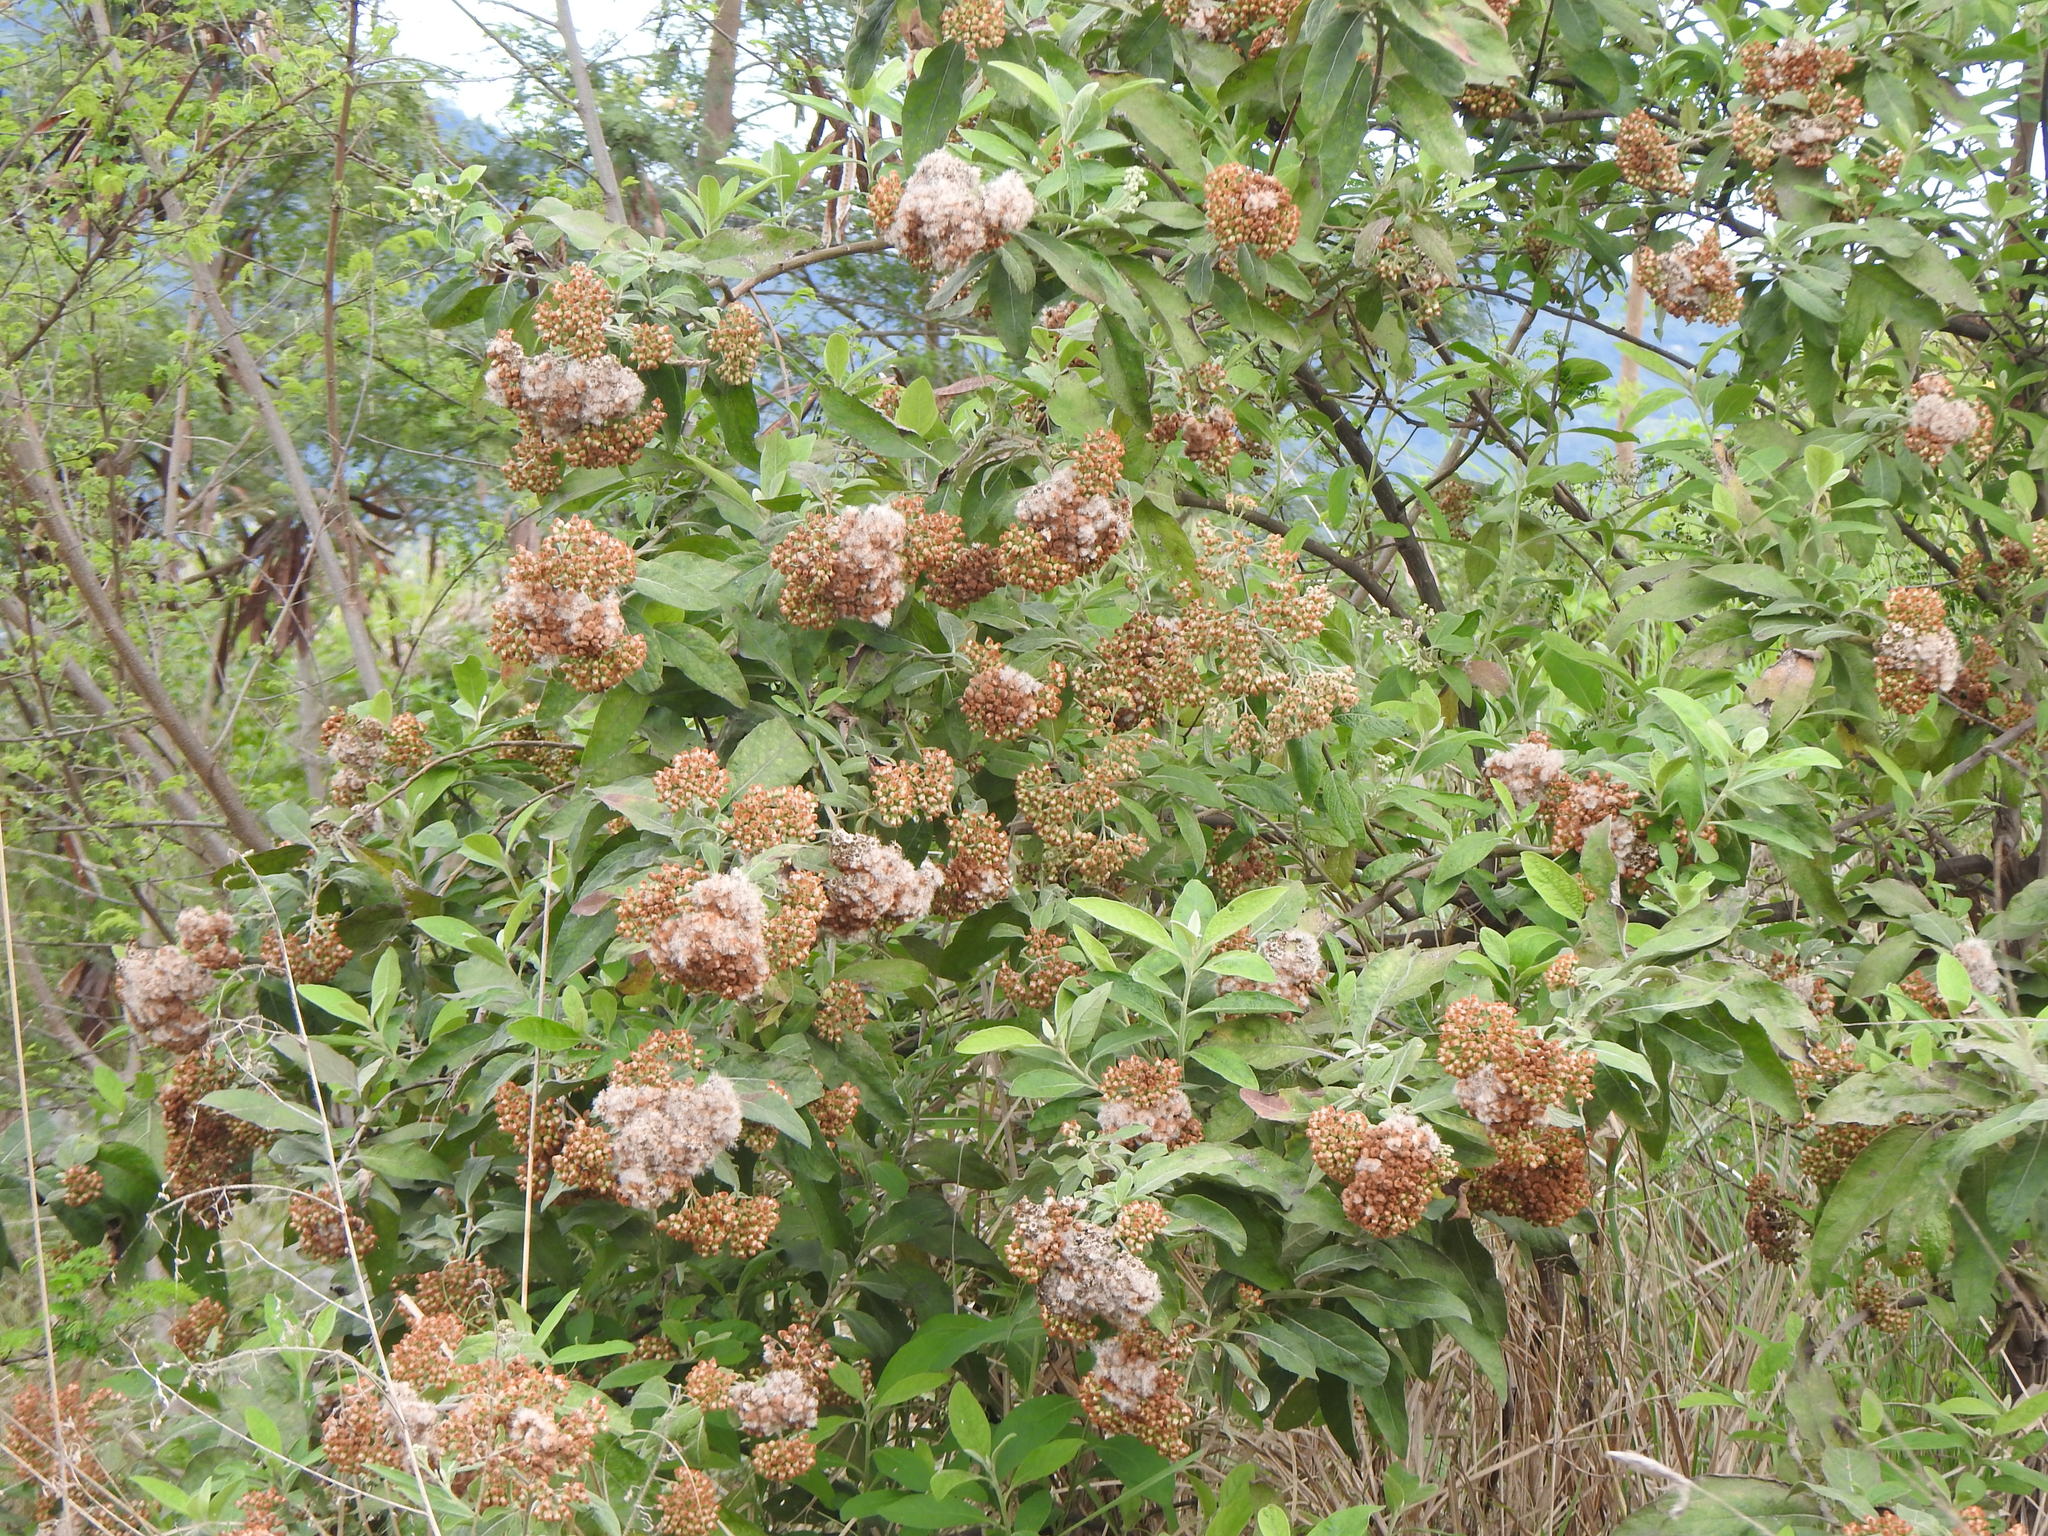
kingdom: Plantae
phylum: Tracheophyta
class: Magnoliopsida
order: Asterales
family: Asteraceae
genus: Pluchea
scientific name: Pluchea carolinensis
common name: Marsh fleabane
